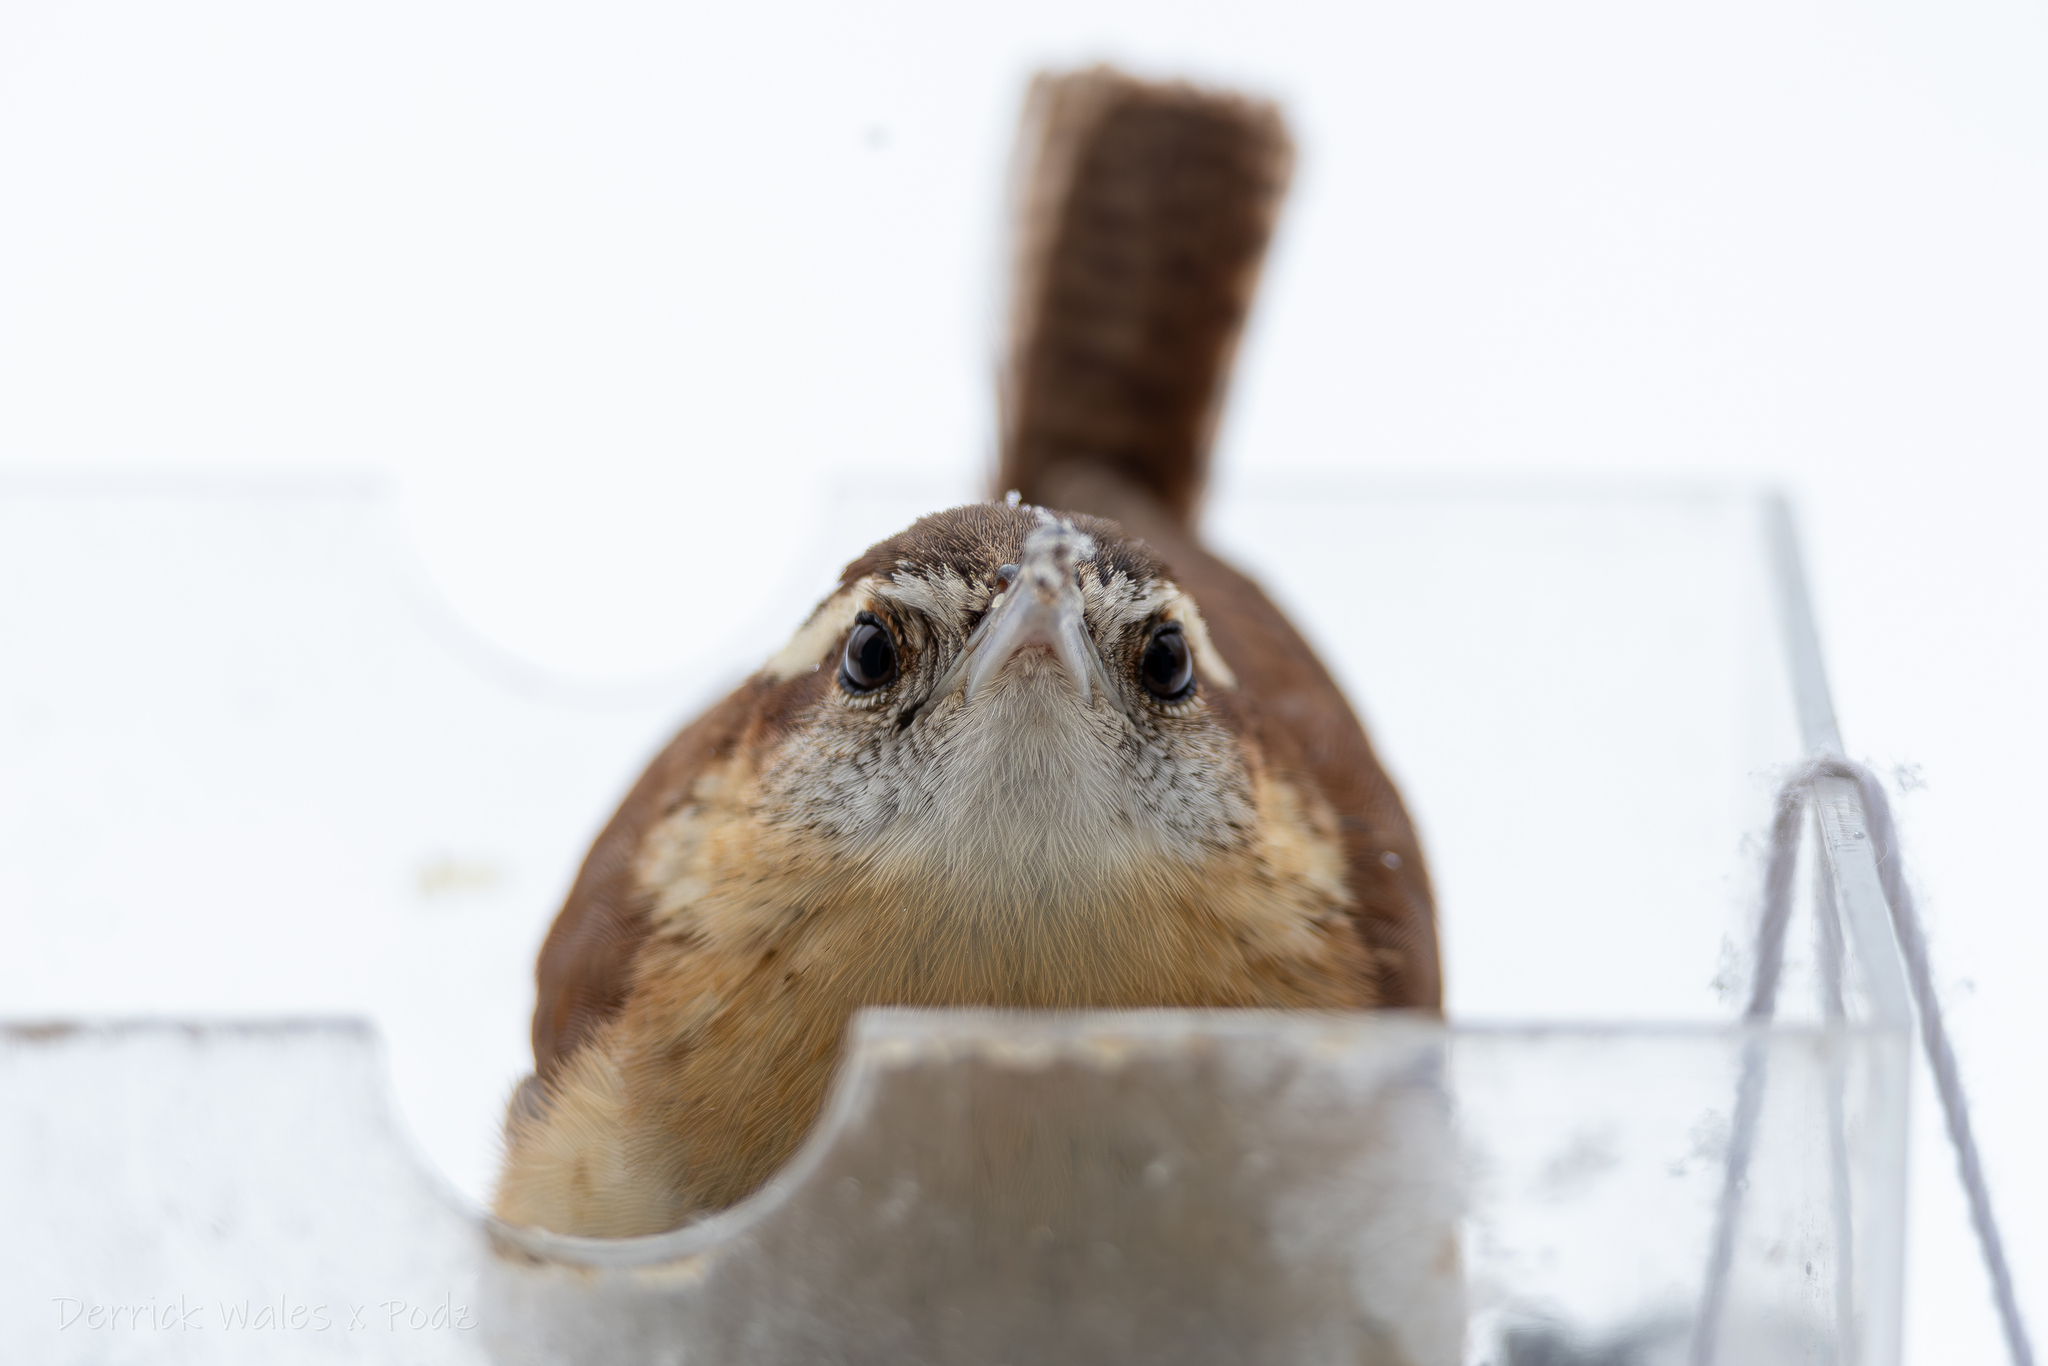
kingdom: Animalia
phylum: Chordata
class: Aves
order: Passeriformes
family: Troglodytidae
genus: Thryothorus
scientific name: Thryothorus ludovicianus
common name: Carolina wren
